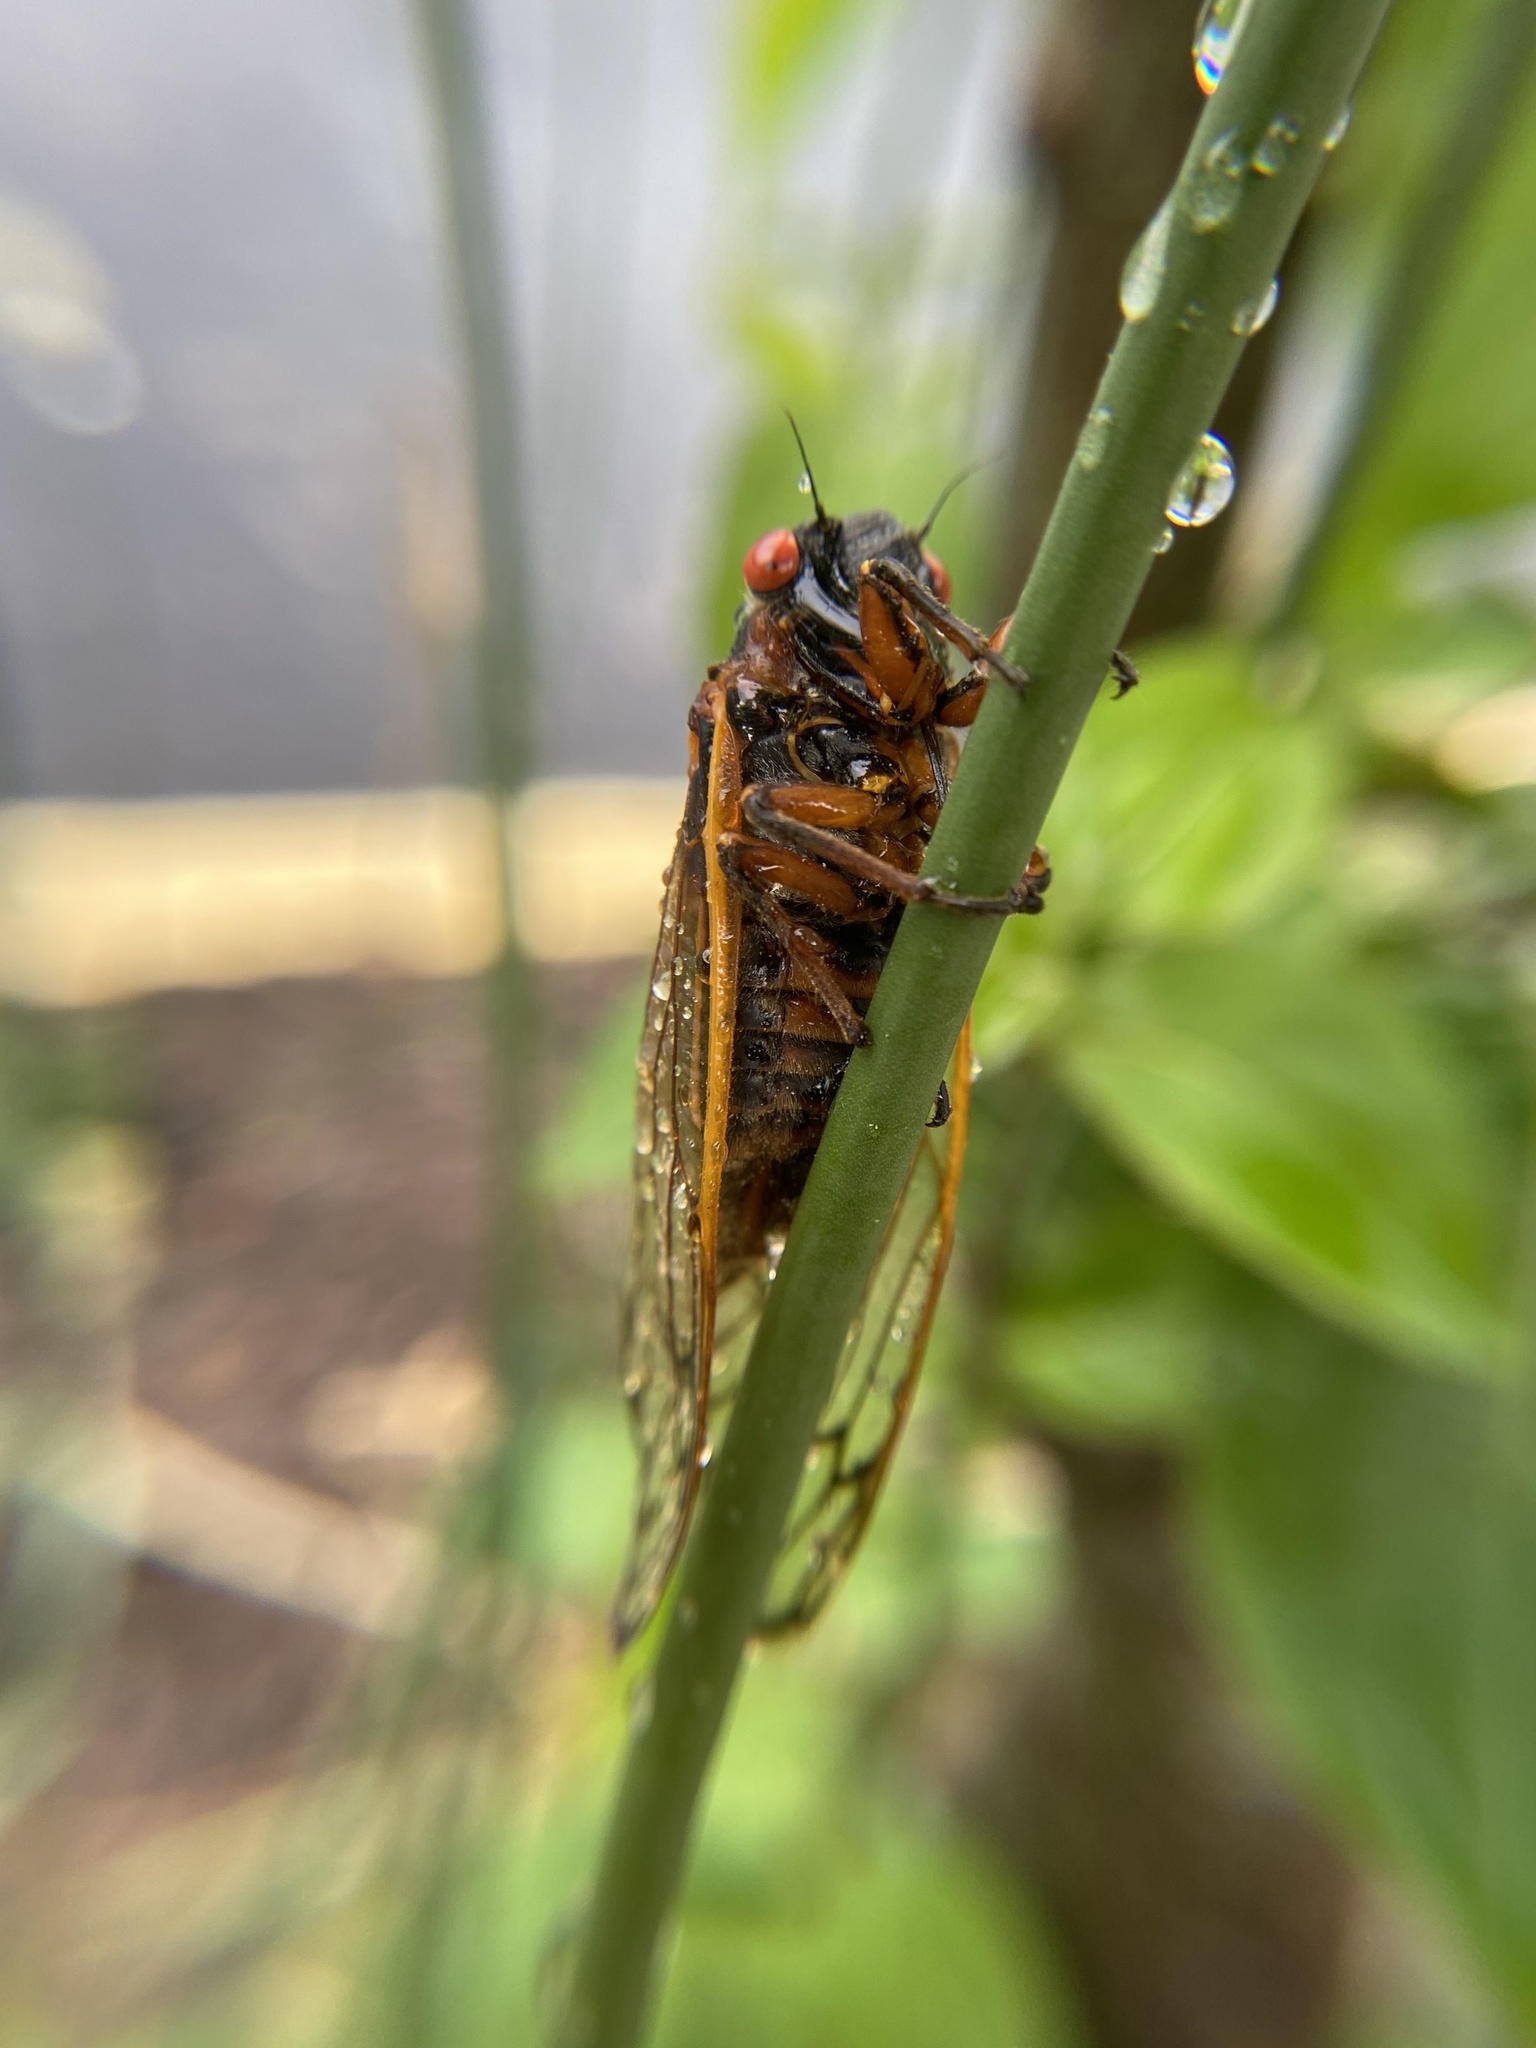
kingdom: Animalia
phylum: Arthropoda
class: Insecta
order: Hemiptera
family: Cicadidae
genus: Magicicada
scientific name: Magicicada septendecim
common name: Periodical cicada
